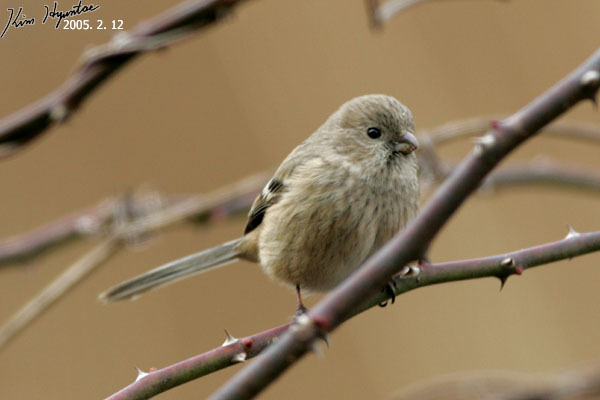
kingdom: Animalia
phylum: Chordata
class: Aves
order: Passeriformes
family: Fringillidae
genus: Carpodacus
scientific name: Carpodacus sibiricus
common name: Long-tailed rosefinch
